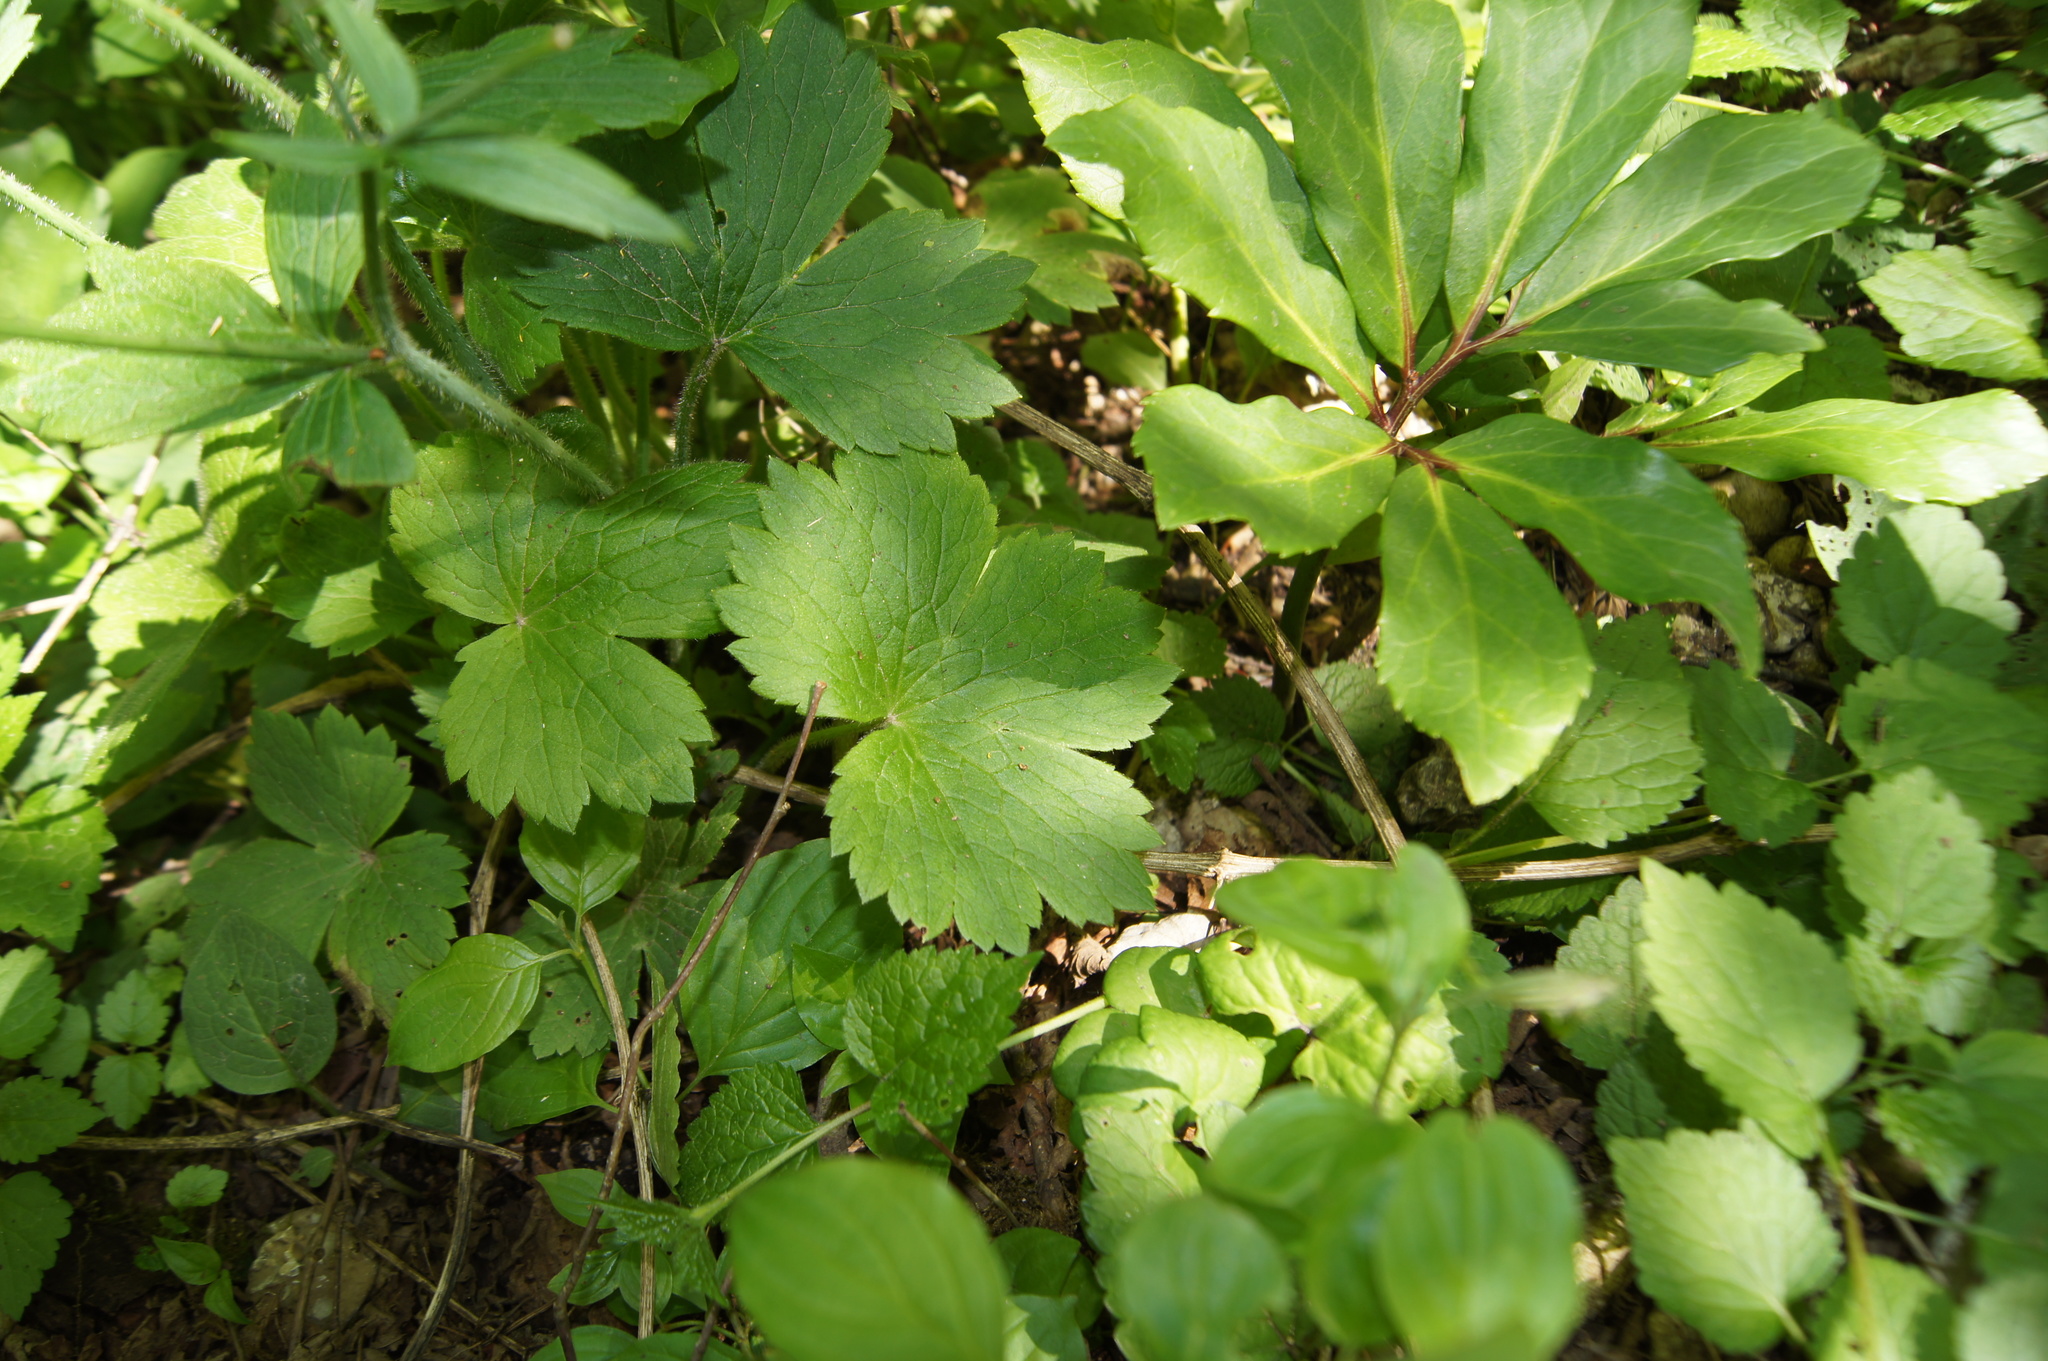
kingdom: Plantae
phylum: Tracheophyta
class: Magnoliopsida
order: Ranunculales
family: Ranunculaceae
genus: Ranunculus
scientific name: Ranunculus lanuginosus
